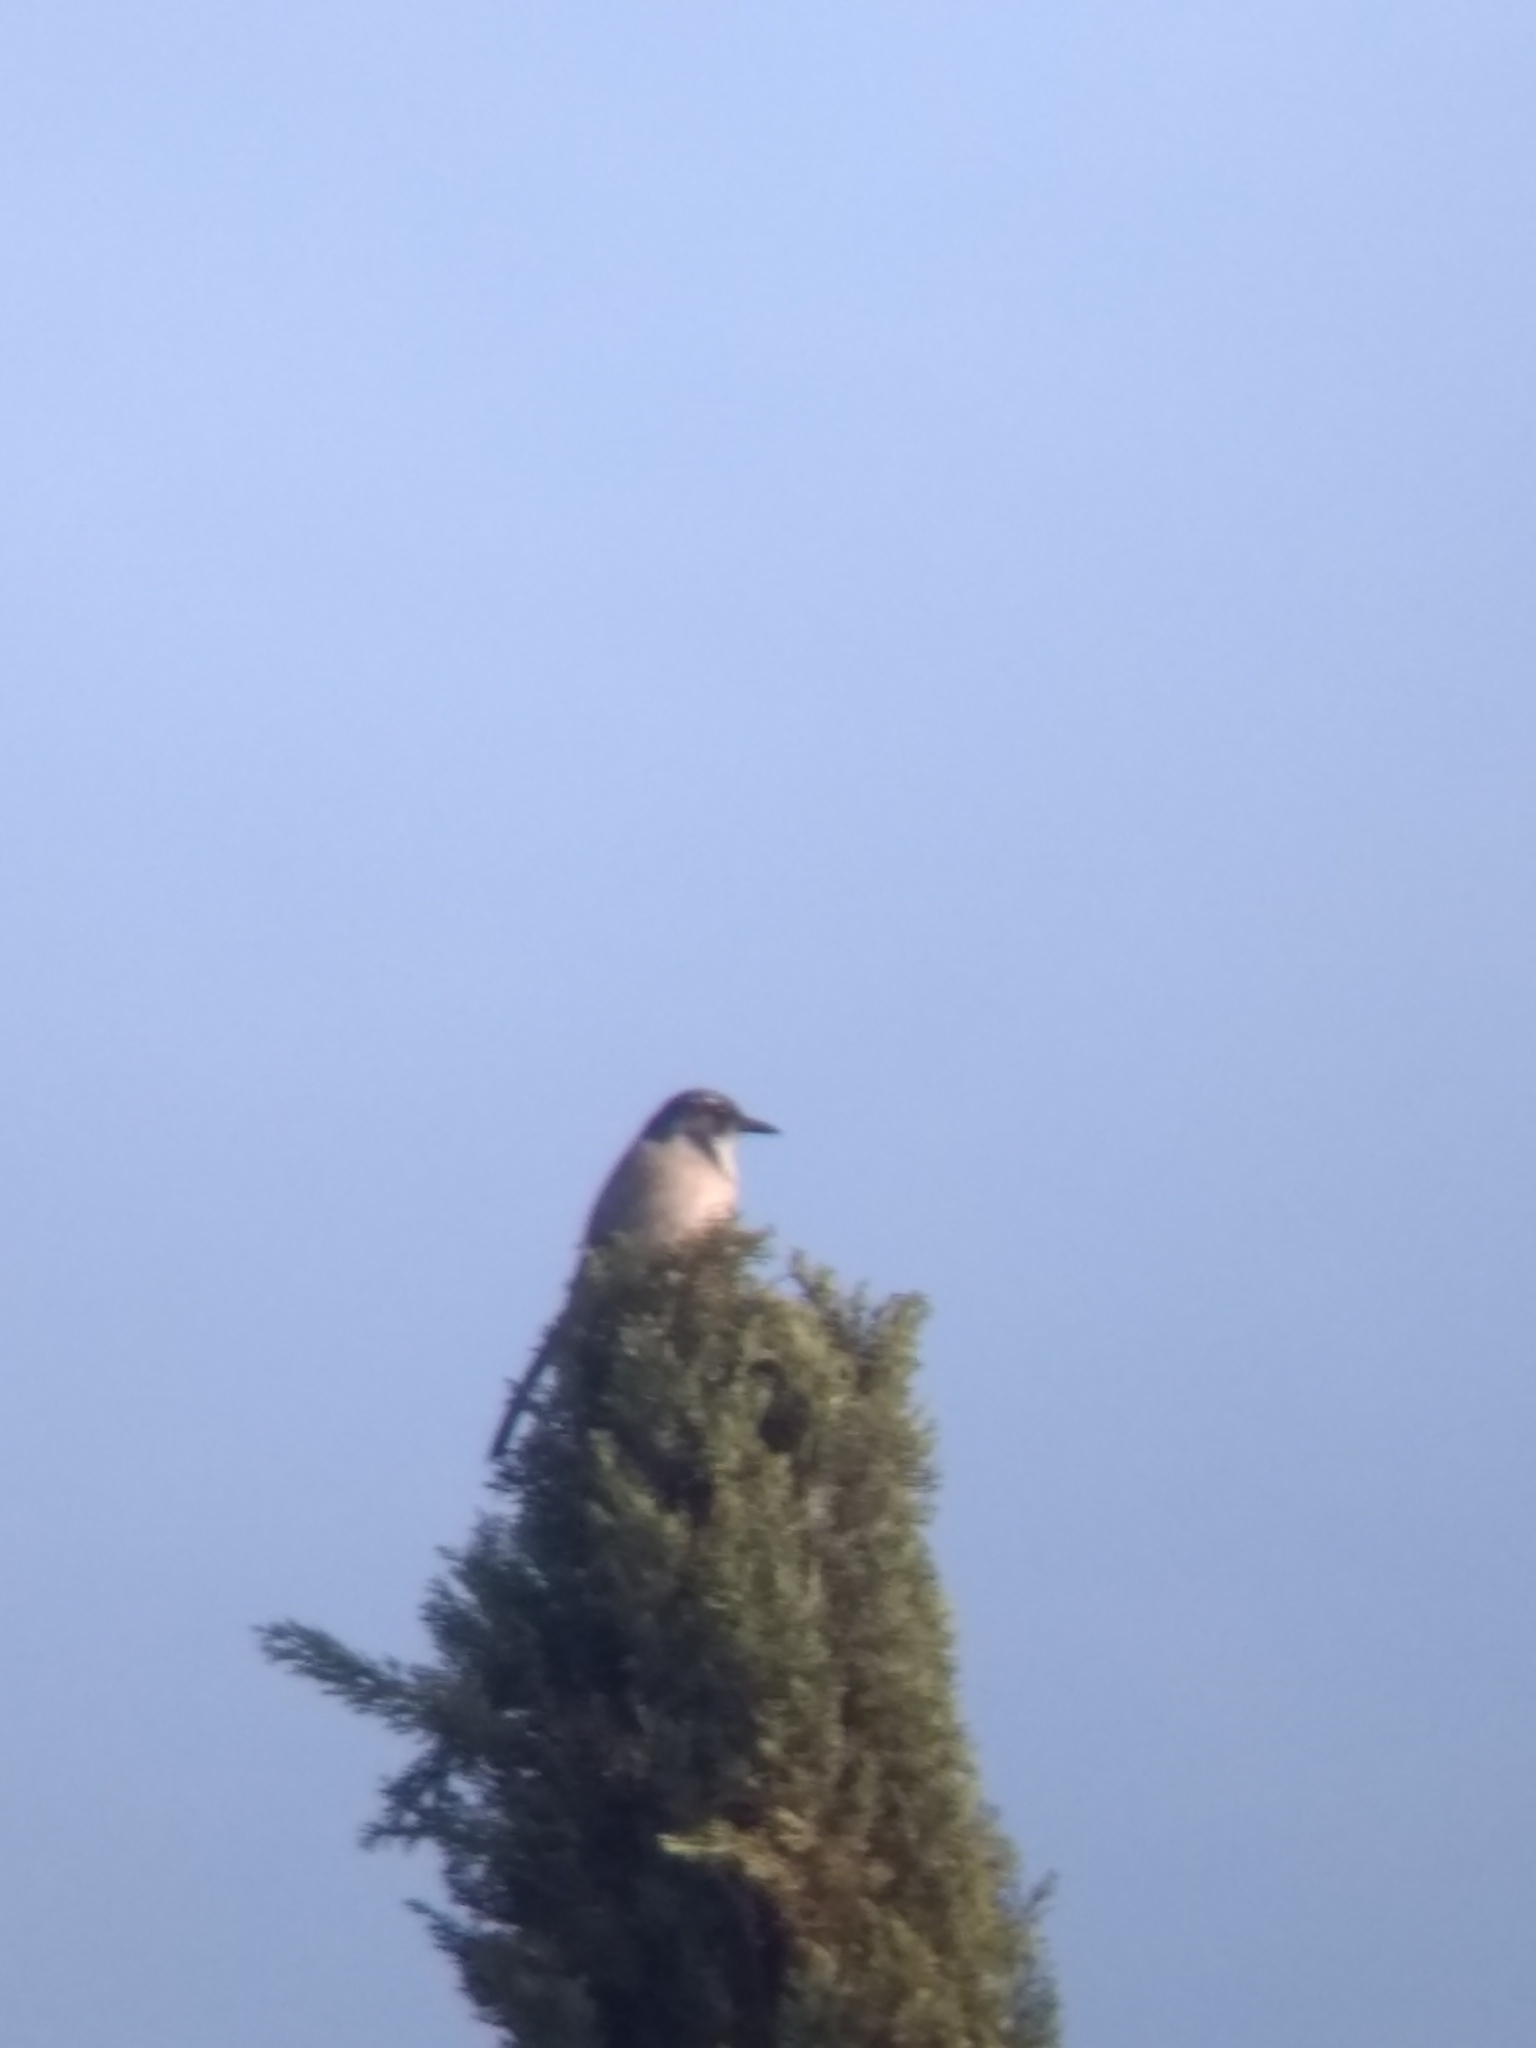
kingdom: Animalia
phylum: Chordata
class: Aves
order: Passeriformes
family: Corvidae
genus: Aphelocoma
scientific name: Aphelocoma californica
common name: California scrub-jay
